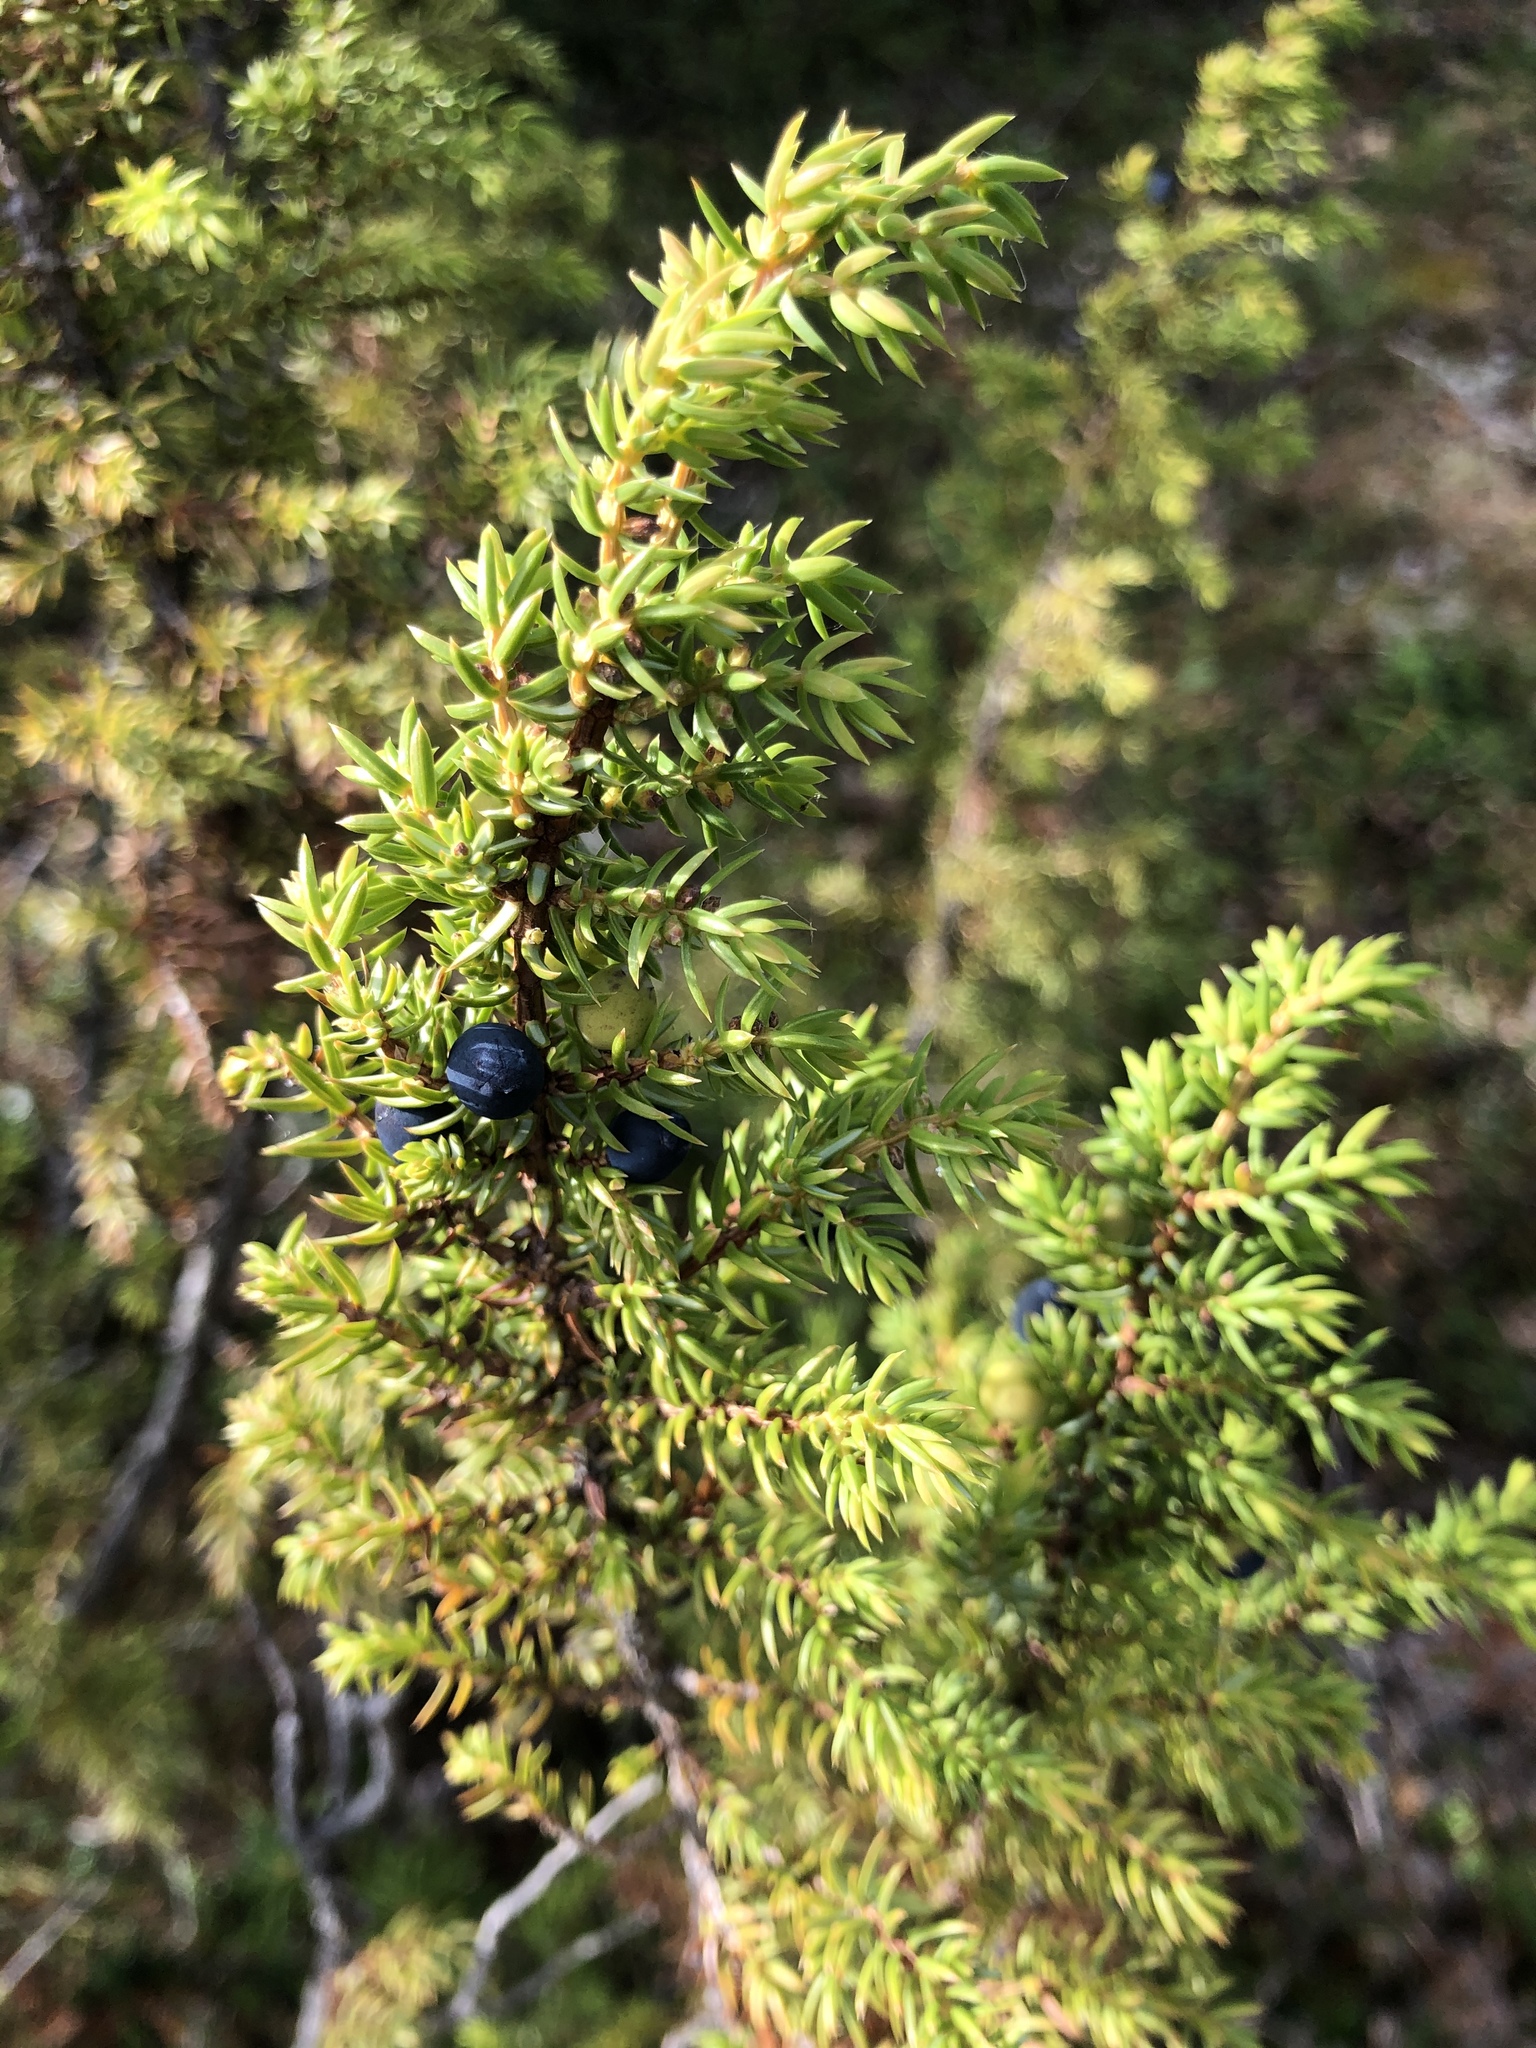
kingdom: Plantae
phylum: Tracheophyta
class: Pinopsida
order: Pinales
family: Cupressaceae
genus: Juniperus
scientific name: Juniperus communis
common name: Common juniper
